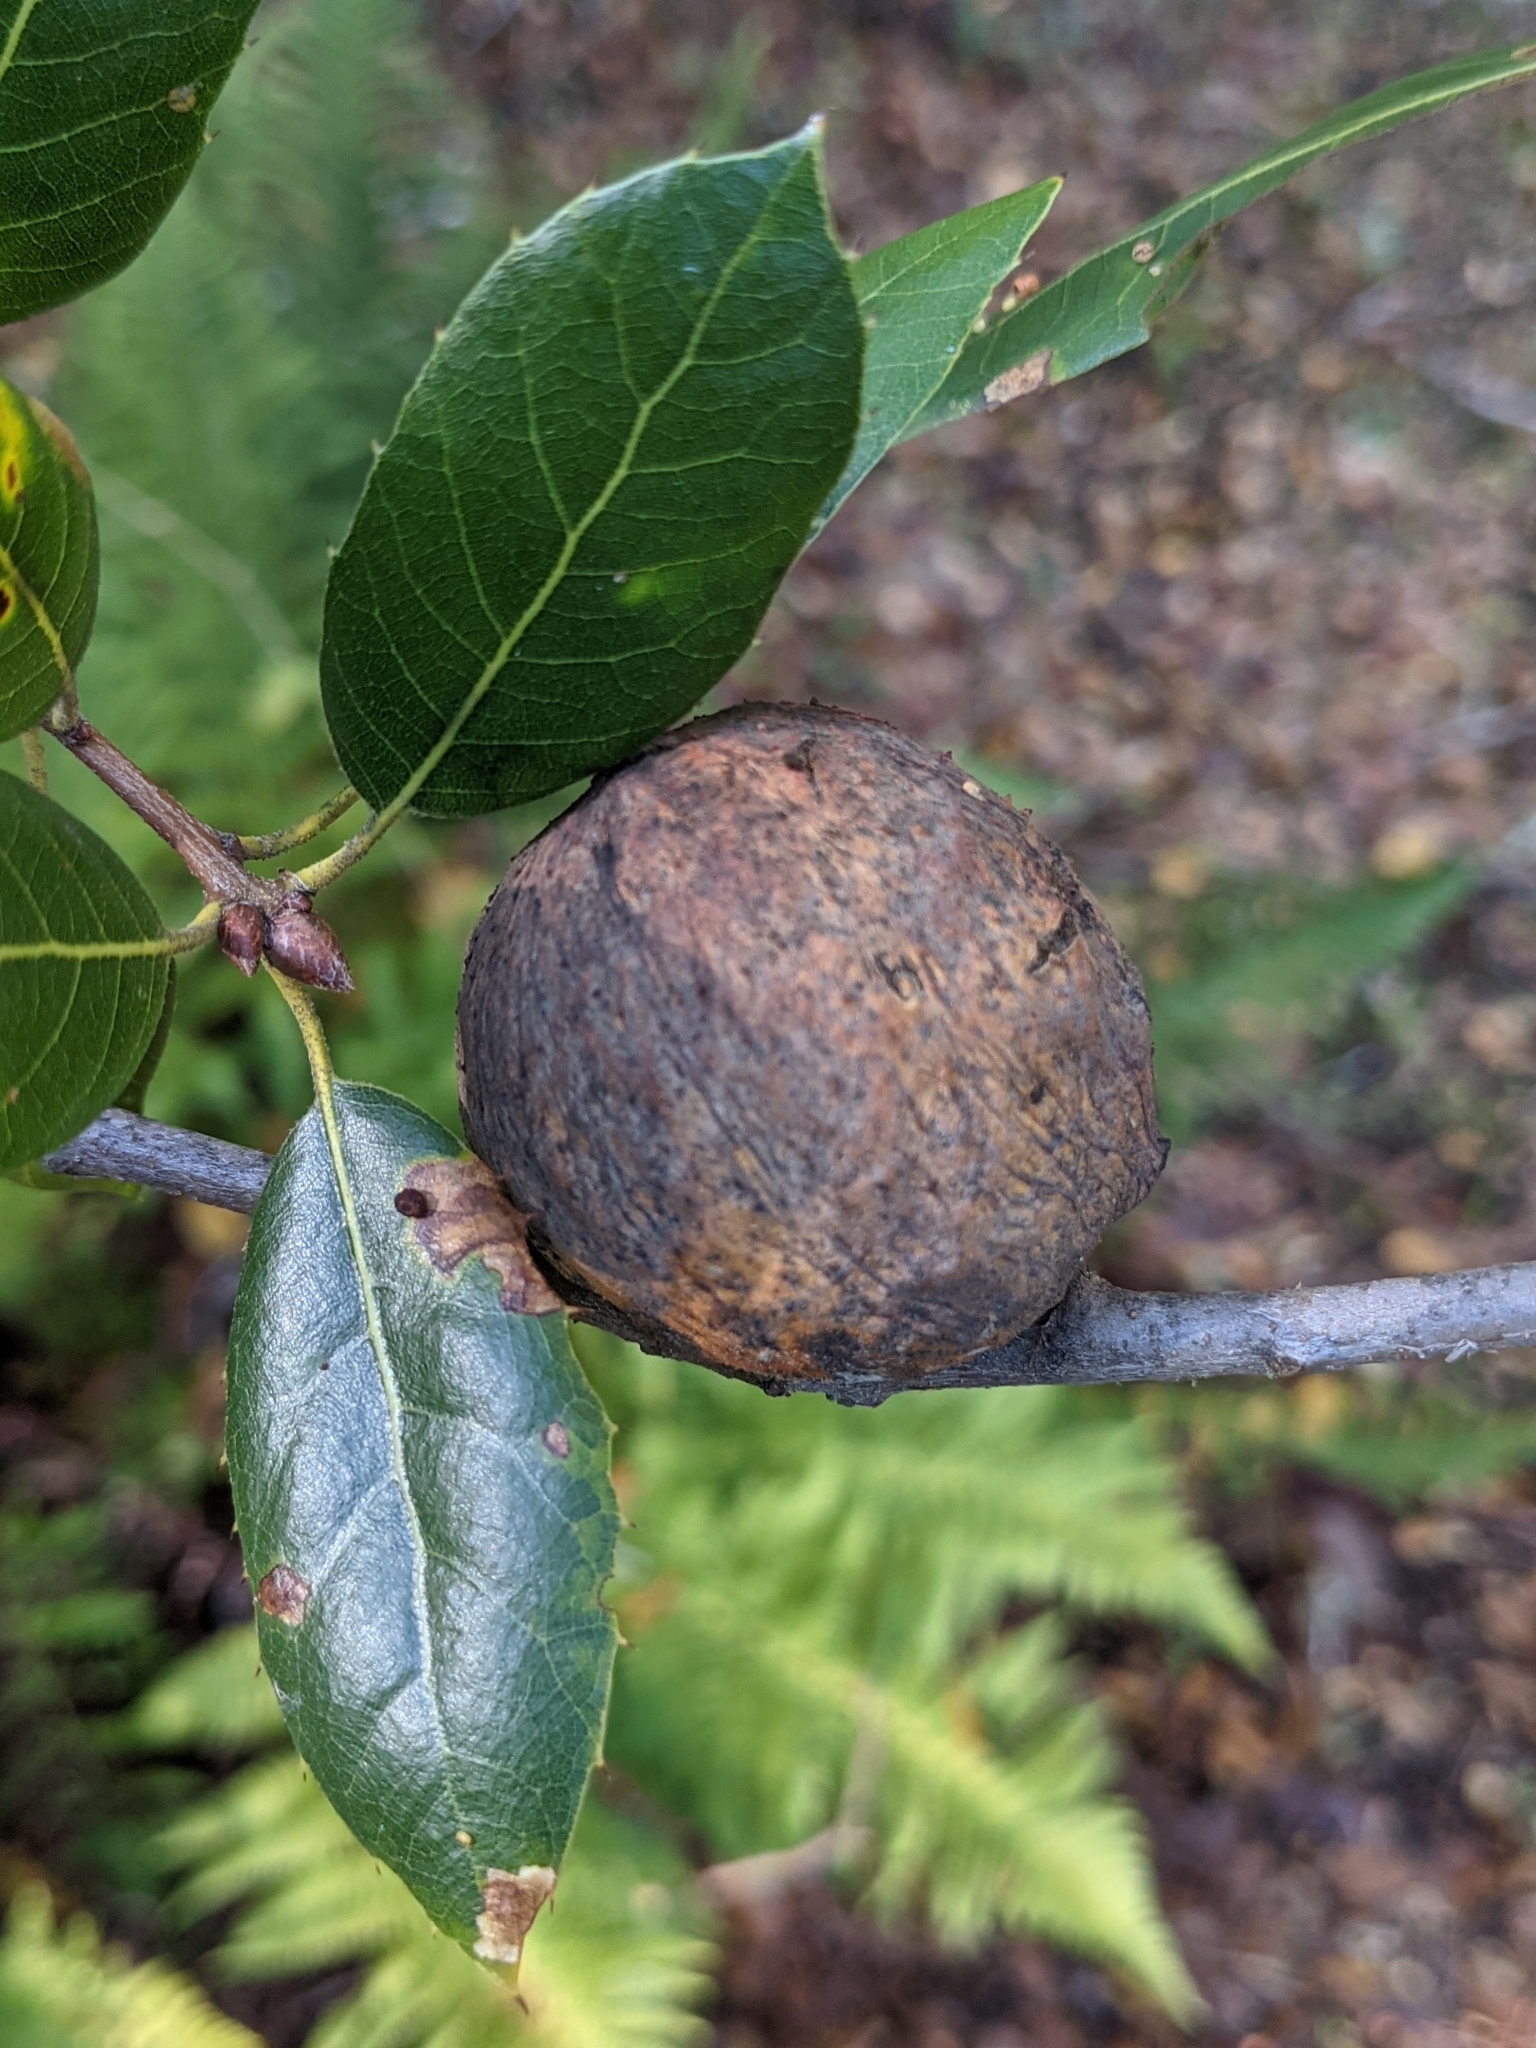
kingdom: Animalia
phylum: Arthropoda
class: Insecta
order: Hymenoptera
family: Cynipidae
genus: Amphibolips
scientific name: Amphibolips quercuspomiformis
